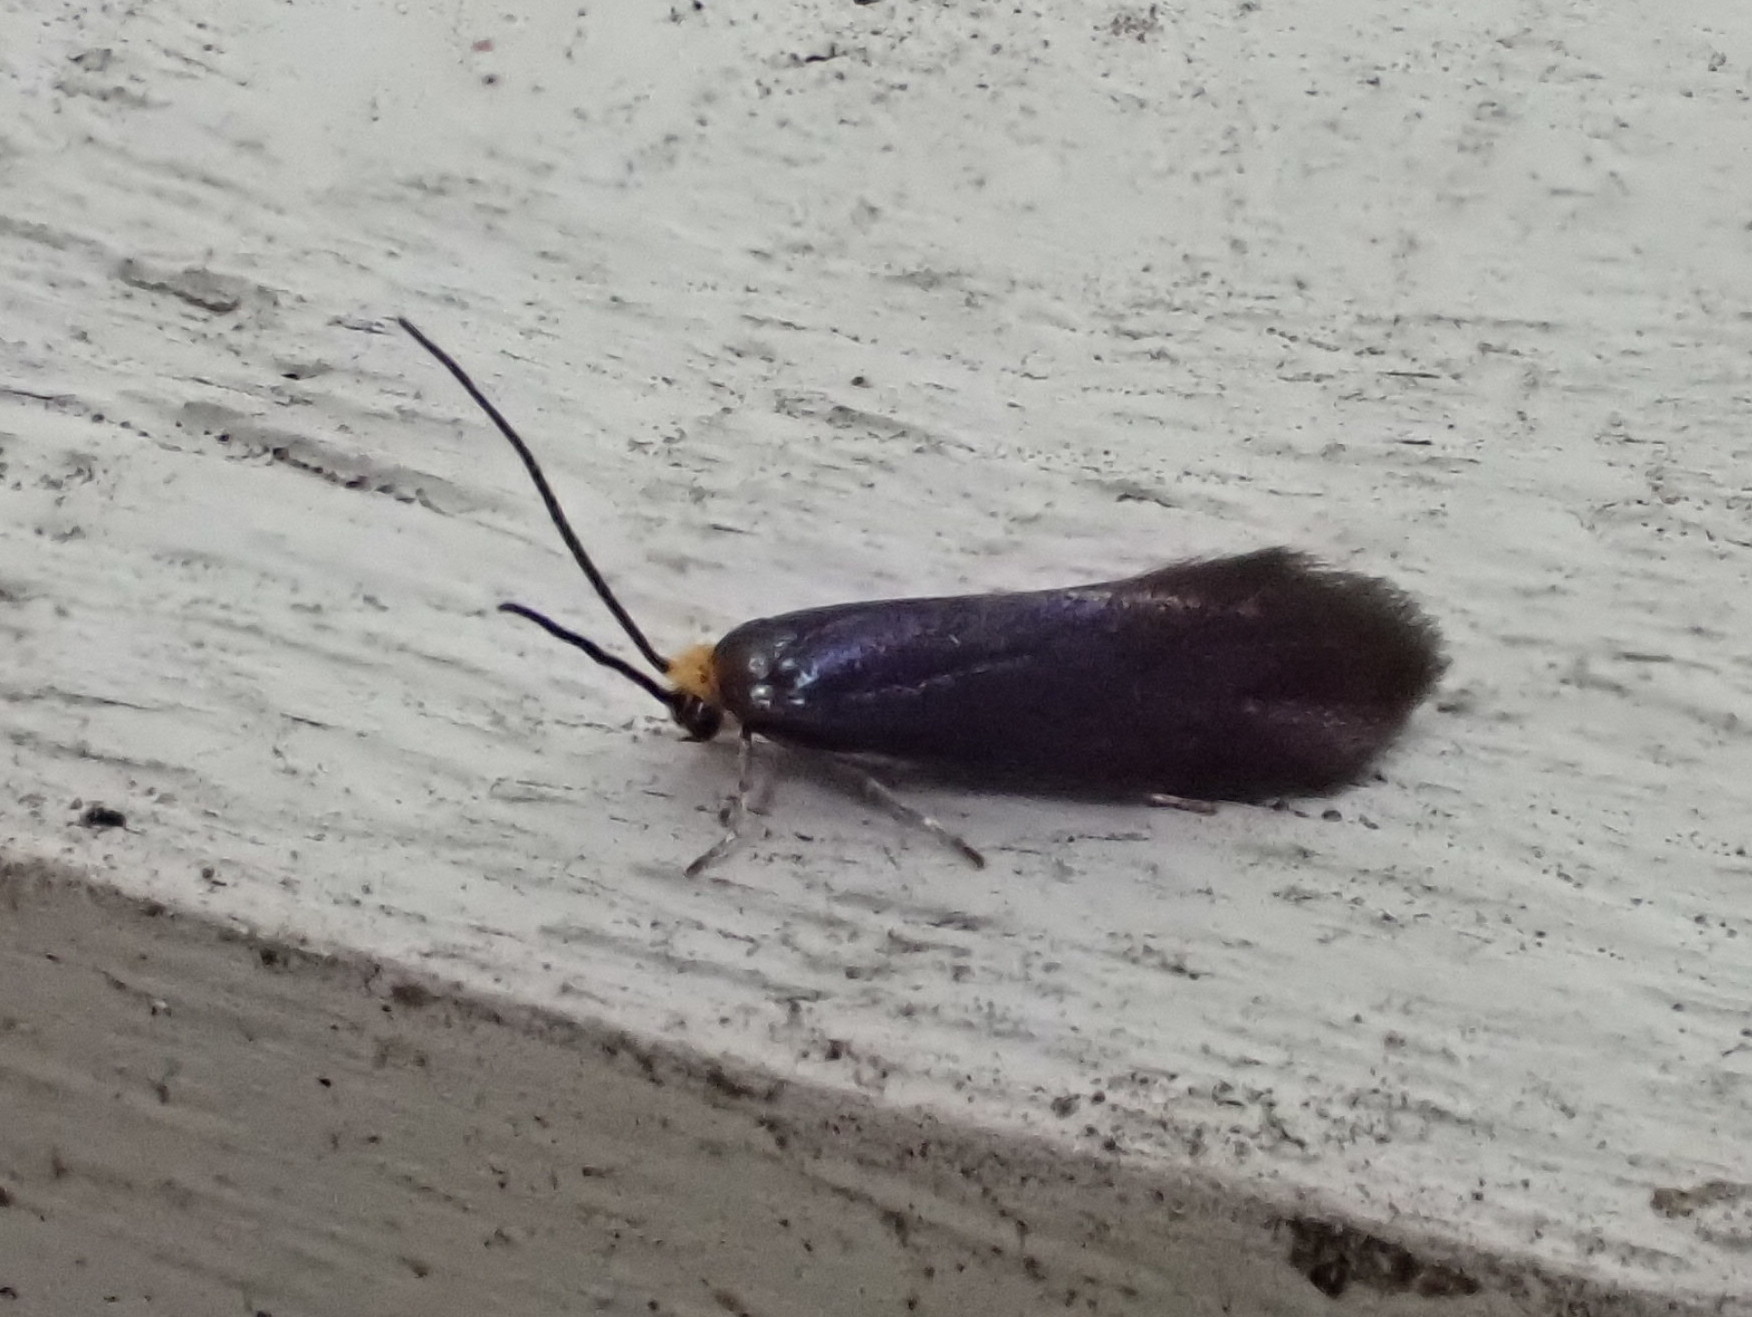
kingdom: Animalia
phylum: Arthropoda
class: Insecta
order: Lepidoptera
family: Incurvariidae
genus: Paraclemensia
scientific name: Paraclemensia acerifoliella
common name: Maple leafcutter
